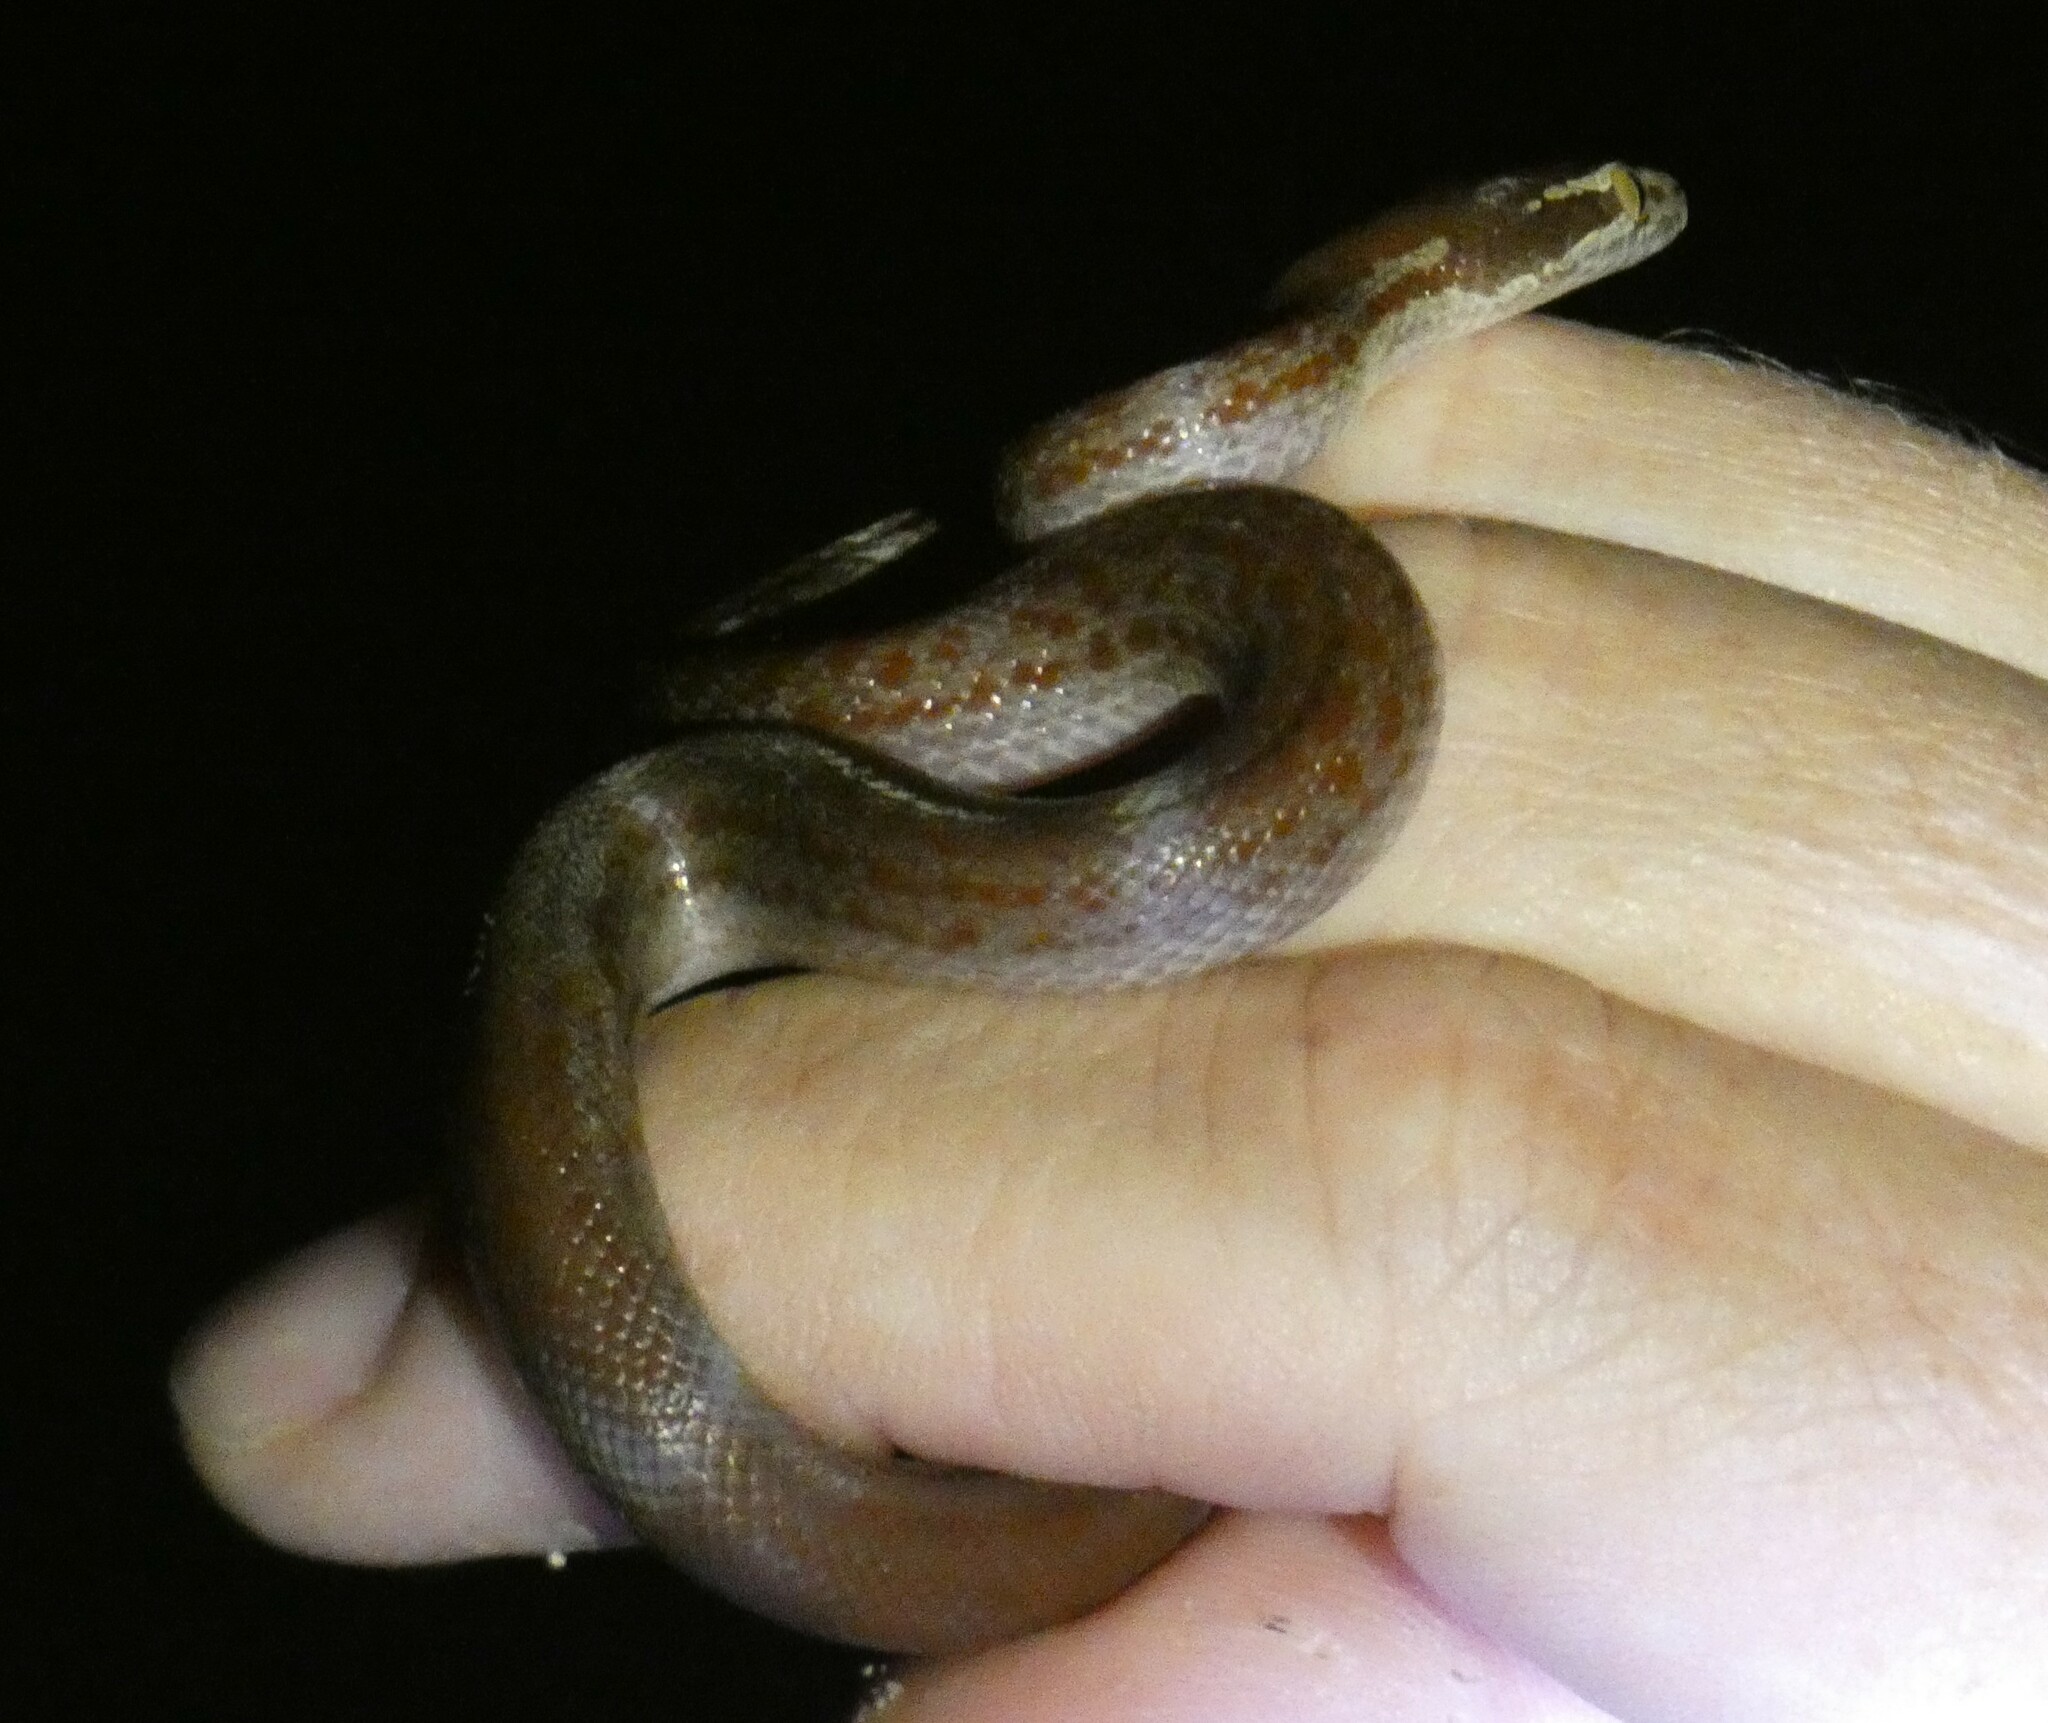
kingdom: Animalia
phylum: Chordata
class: Squamata
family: Lamprophiidae
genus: Boaedon
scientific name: Boaedon capensis
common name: Brown house snake
